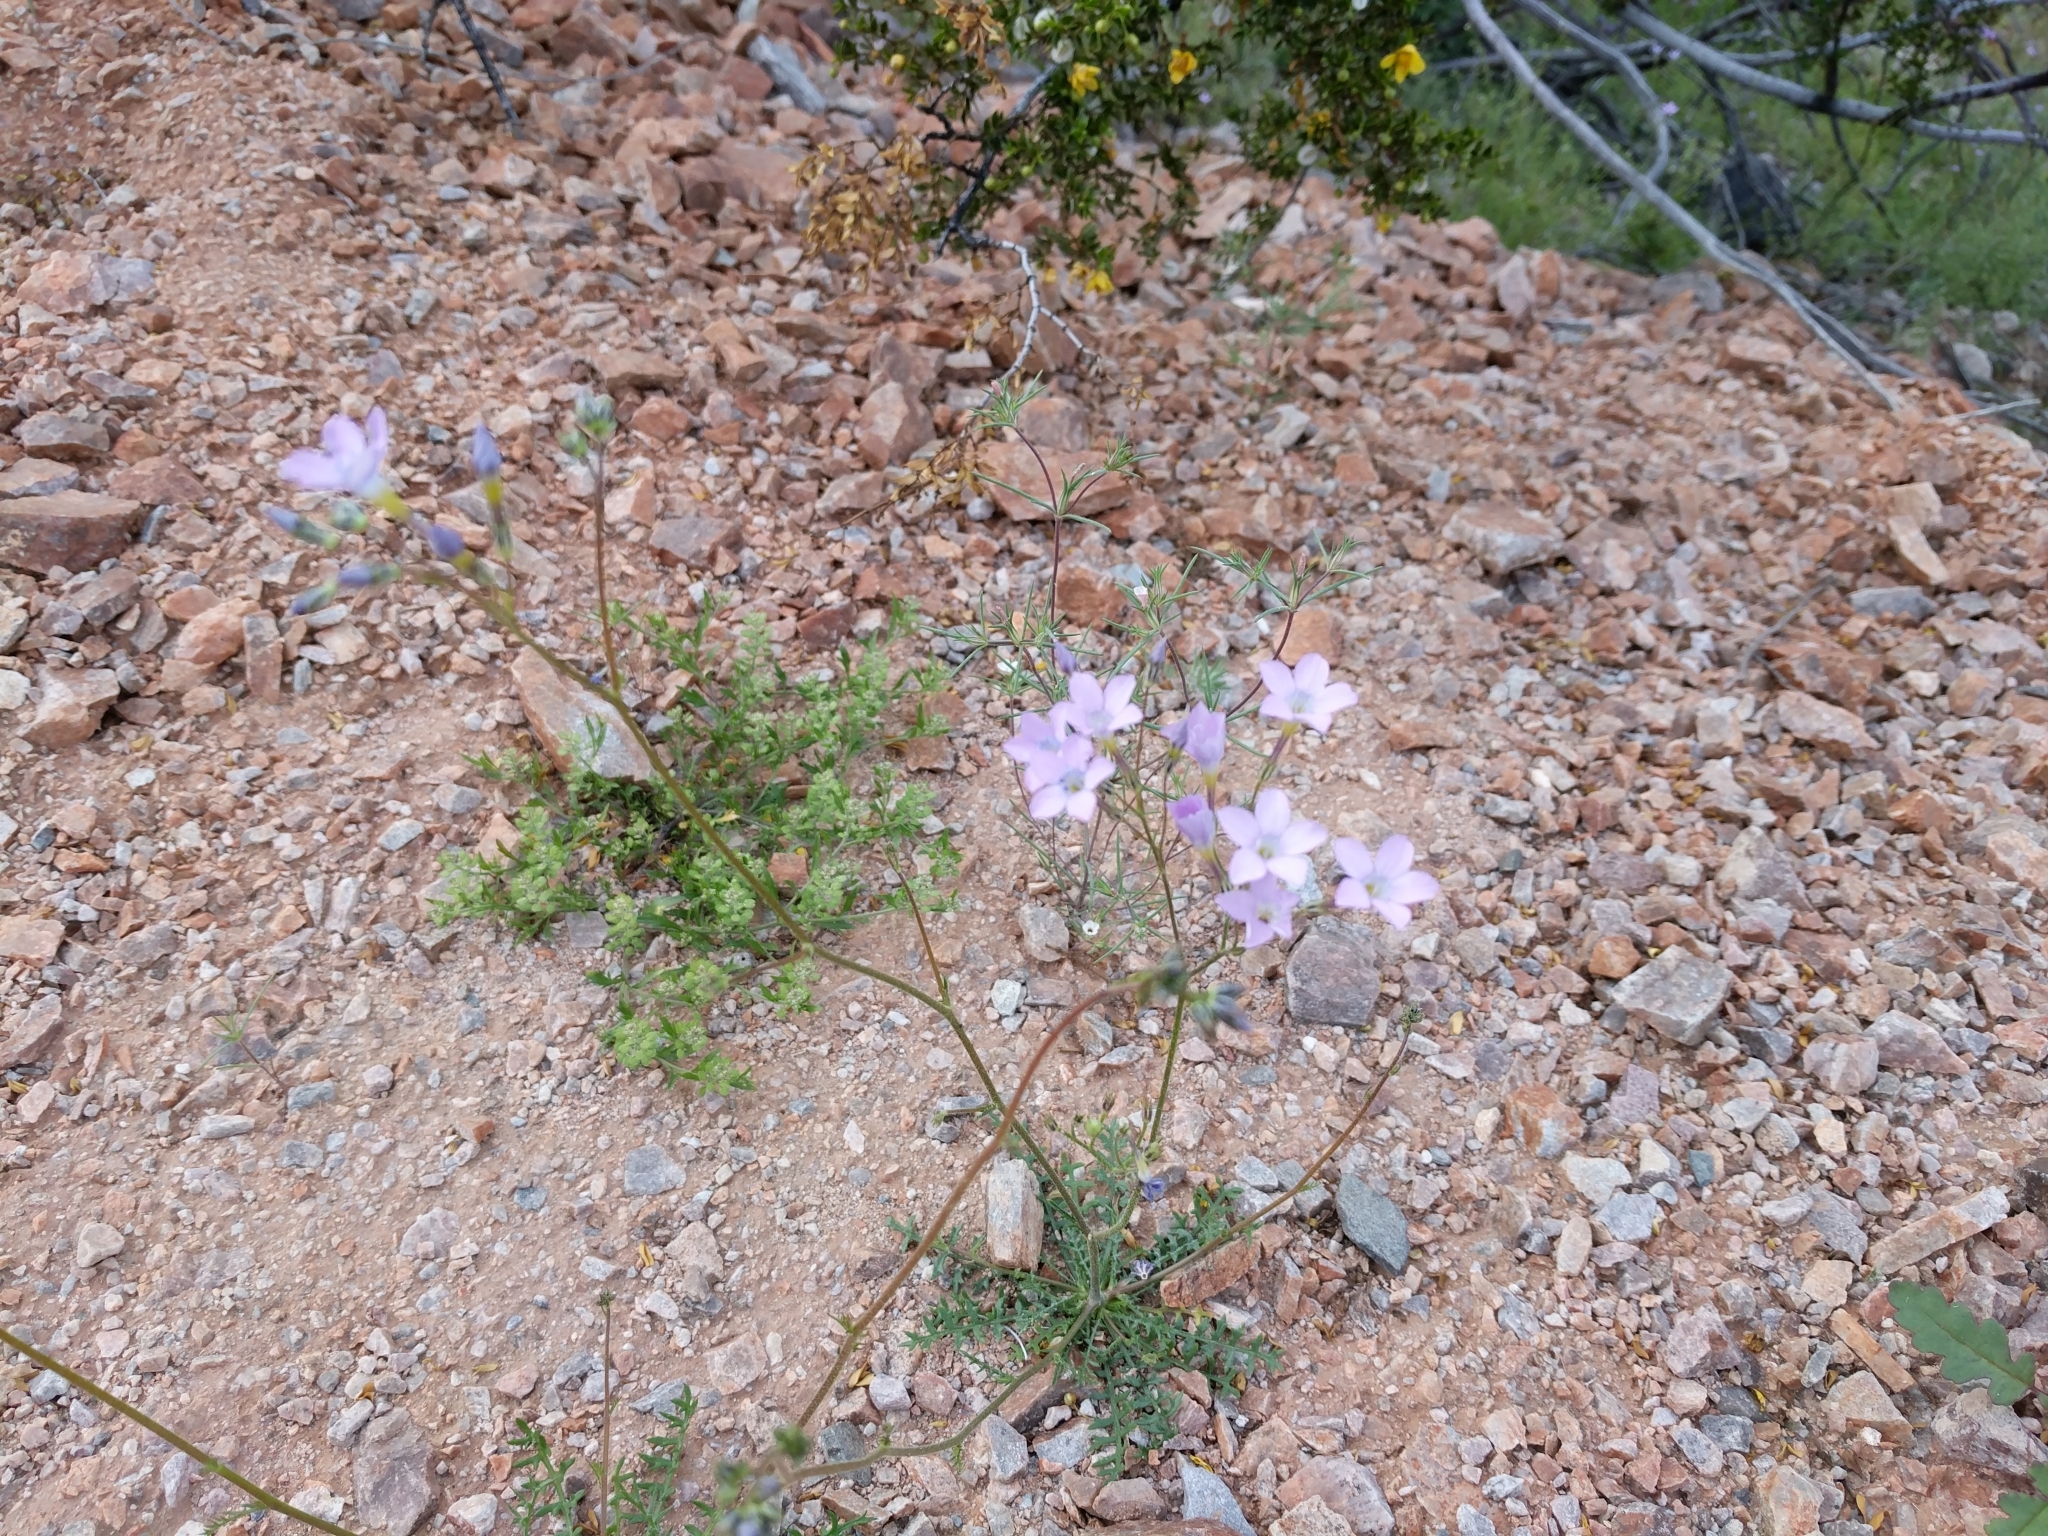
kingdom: Plantae
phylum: Tracheophyta
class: Magnoliopsida
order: Ericales
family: Polemoniaceae
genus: Gilia
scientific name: Gilia flavocincta
